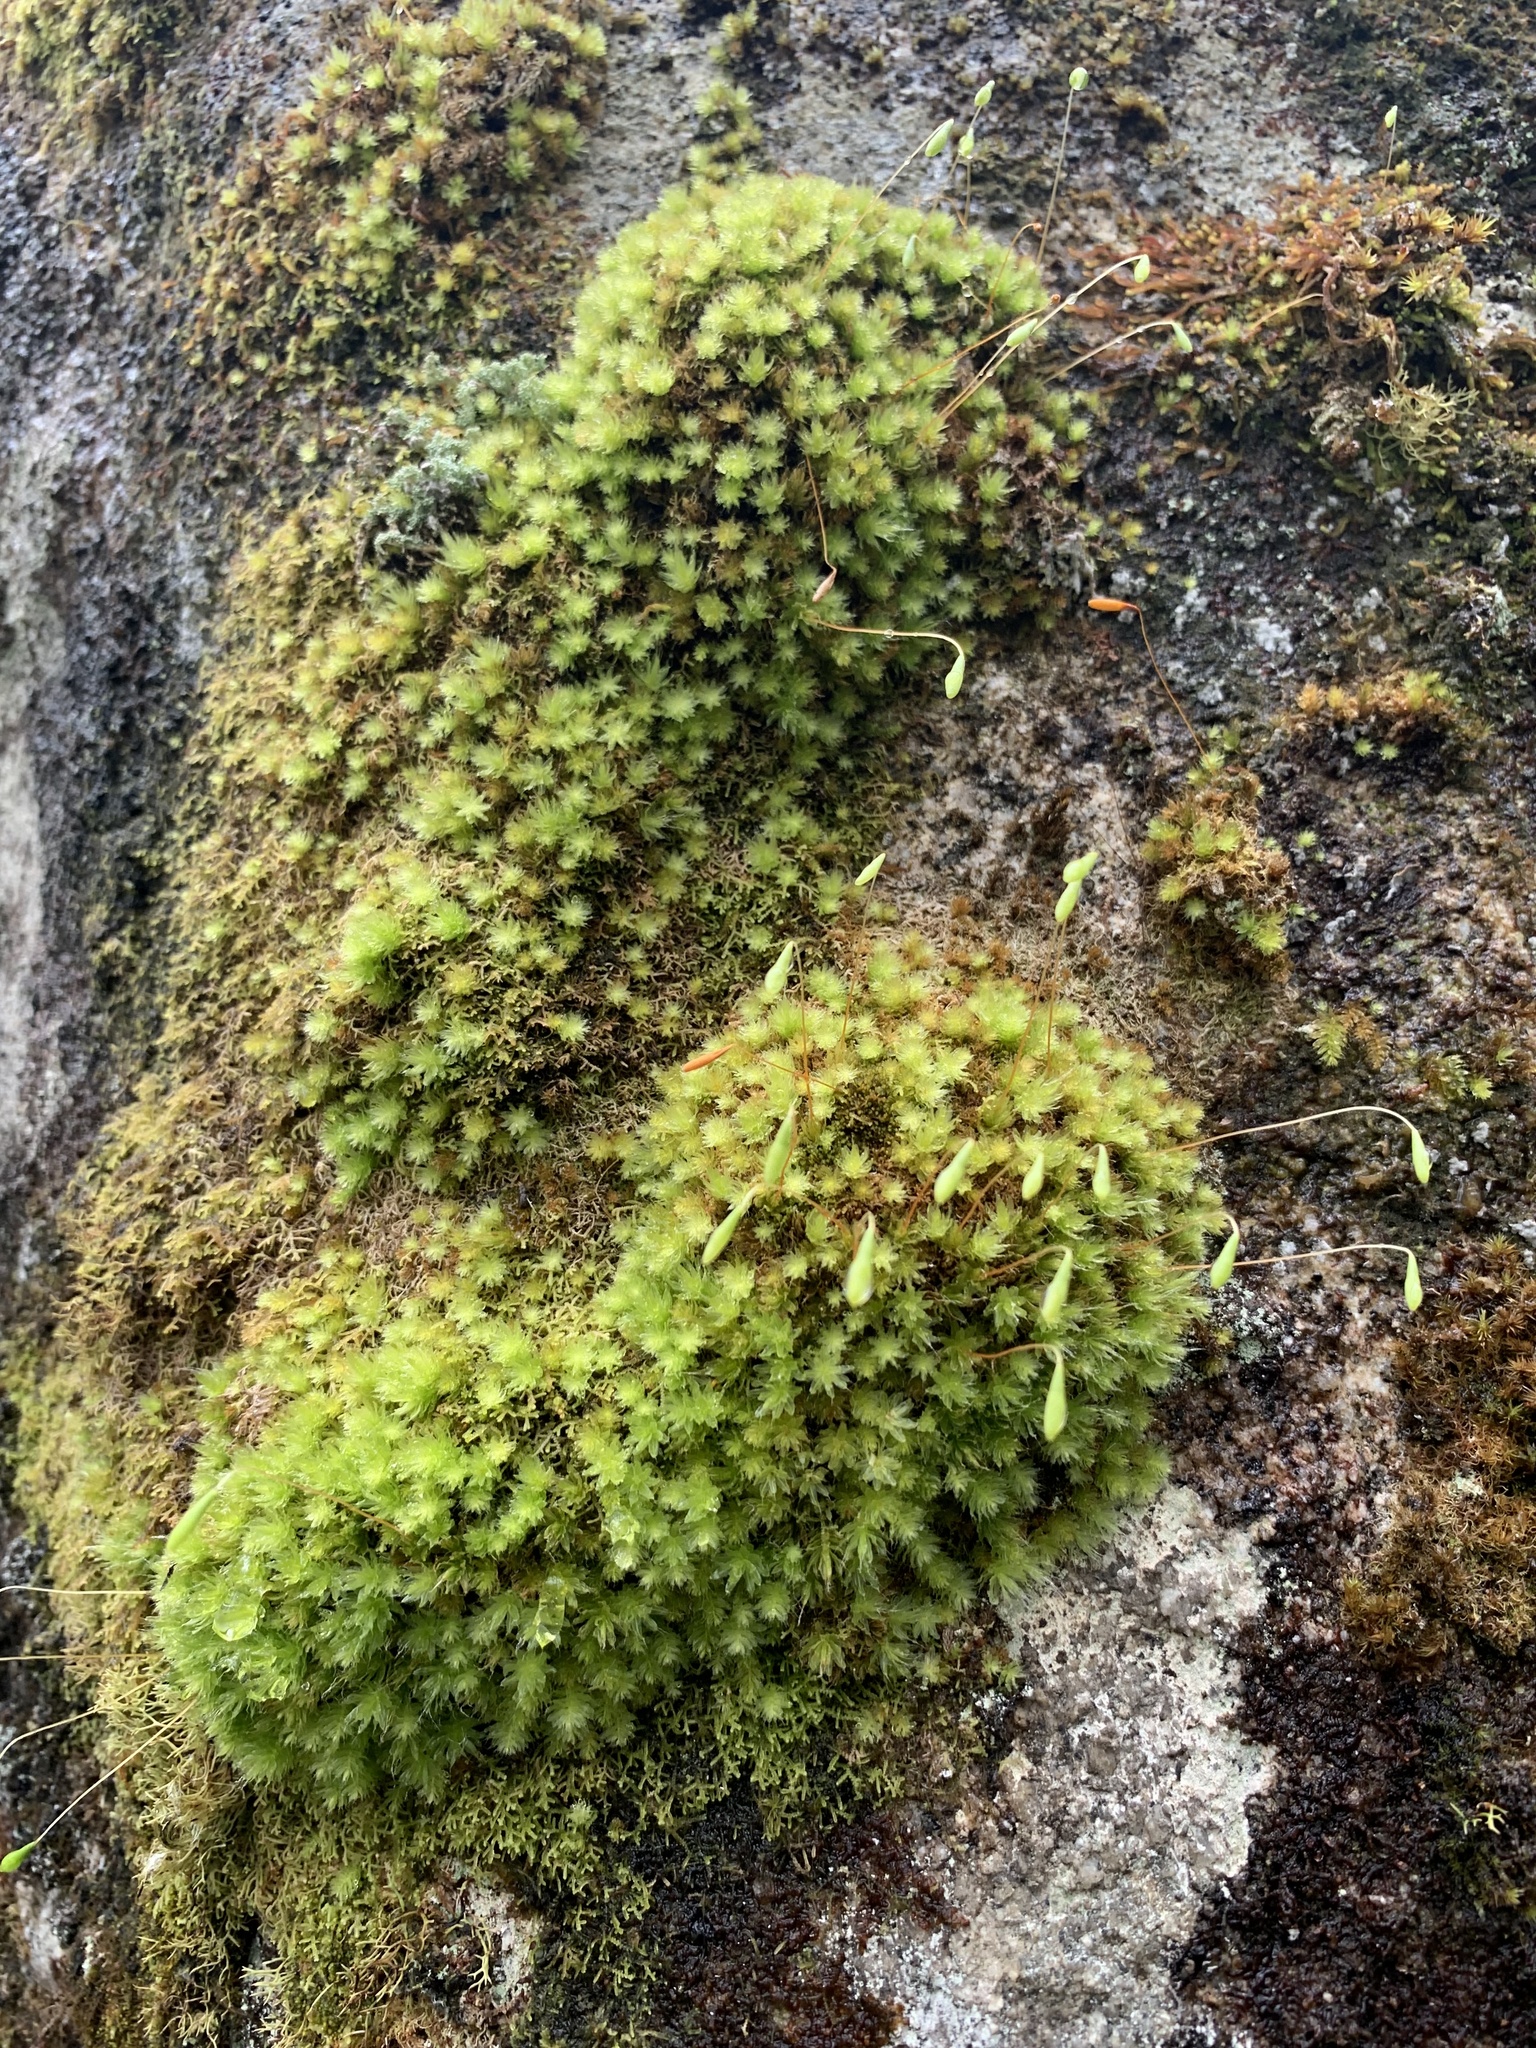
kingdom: Plantae
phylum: Bryophyta
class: Bryopsida
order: Bryales
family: Leptostomataceae
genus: Leptostomum
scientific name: Leptostomum inclinans
